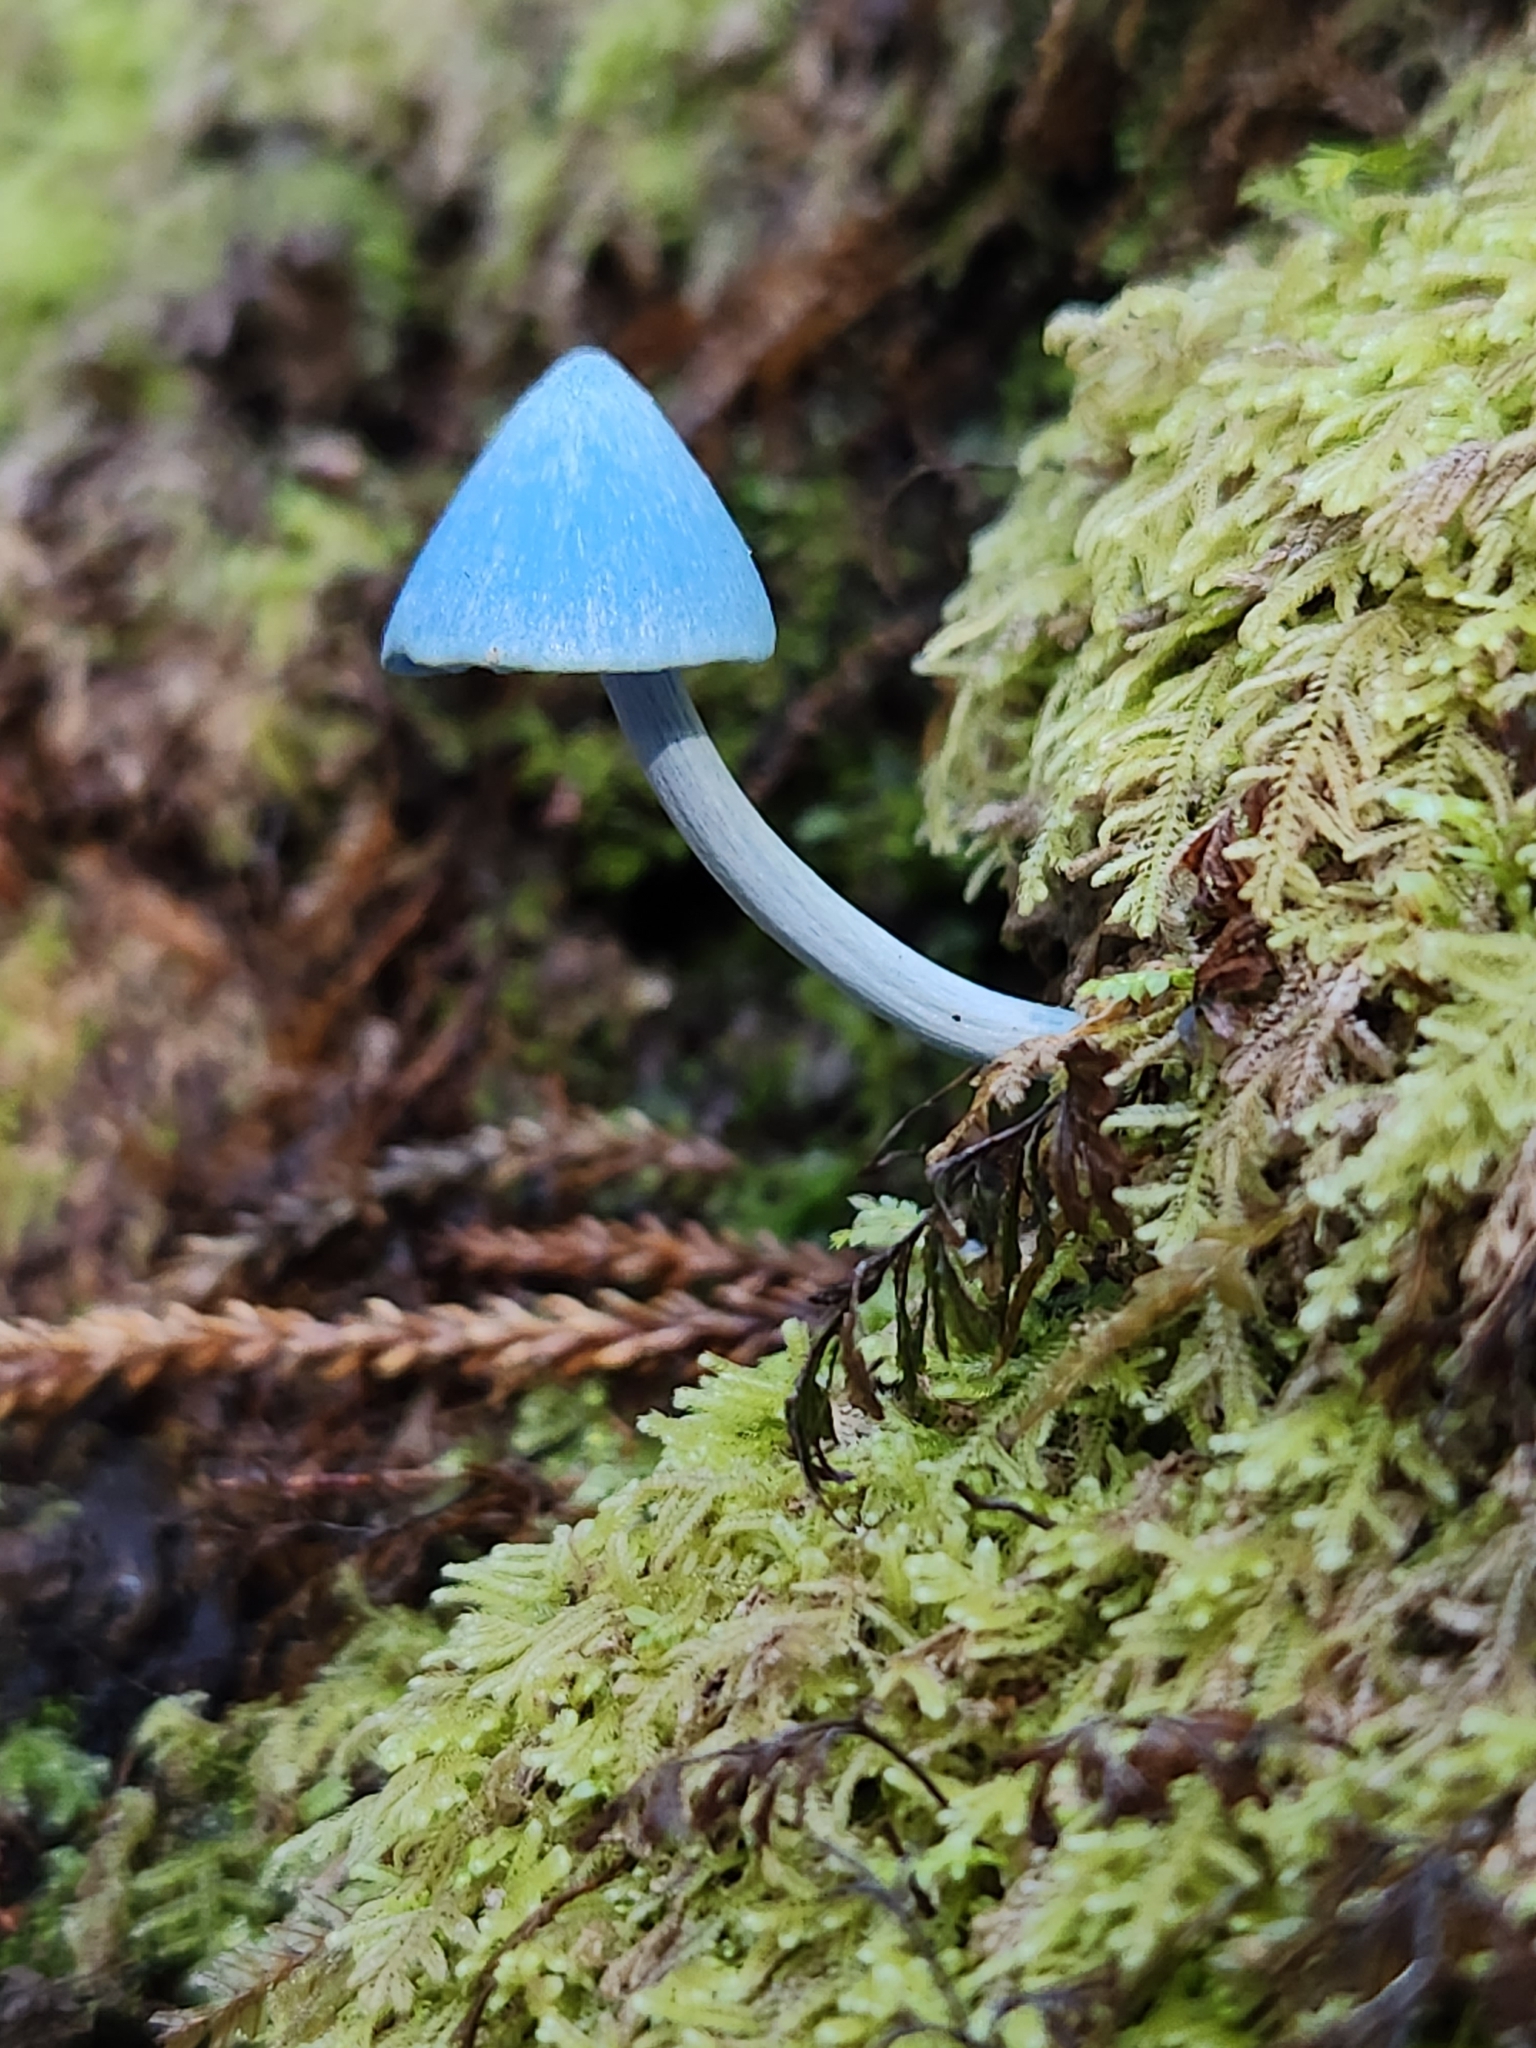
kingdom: Fungi
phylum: Basidiomycota
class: Agaricomycetes
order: Agaricales
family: Entolomataceae
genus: Entoloma
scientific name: Entoloma hochstetteri
